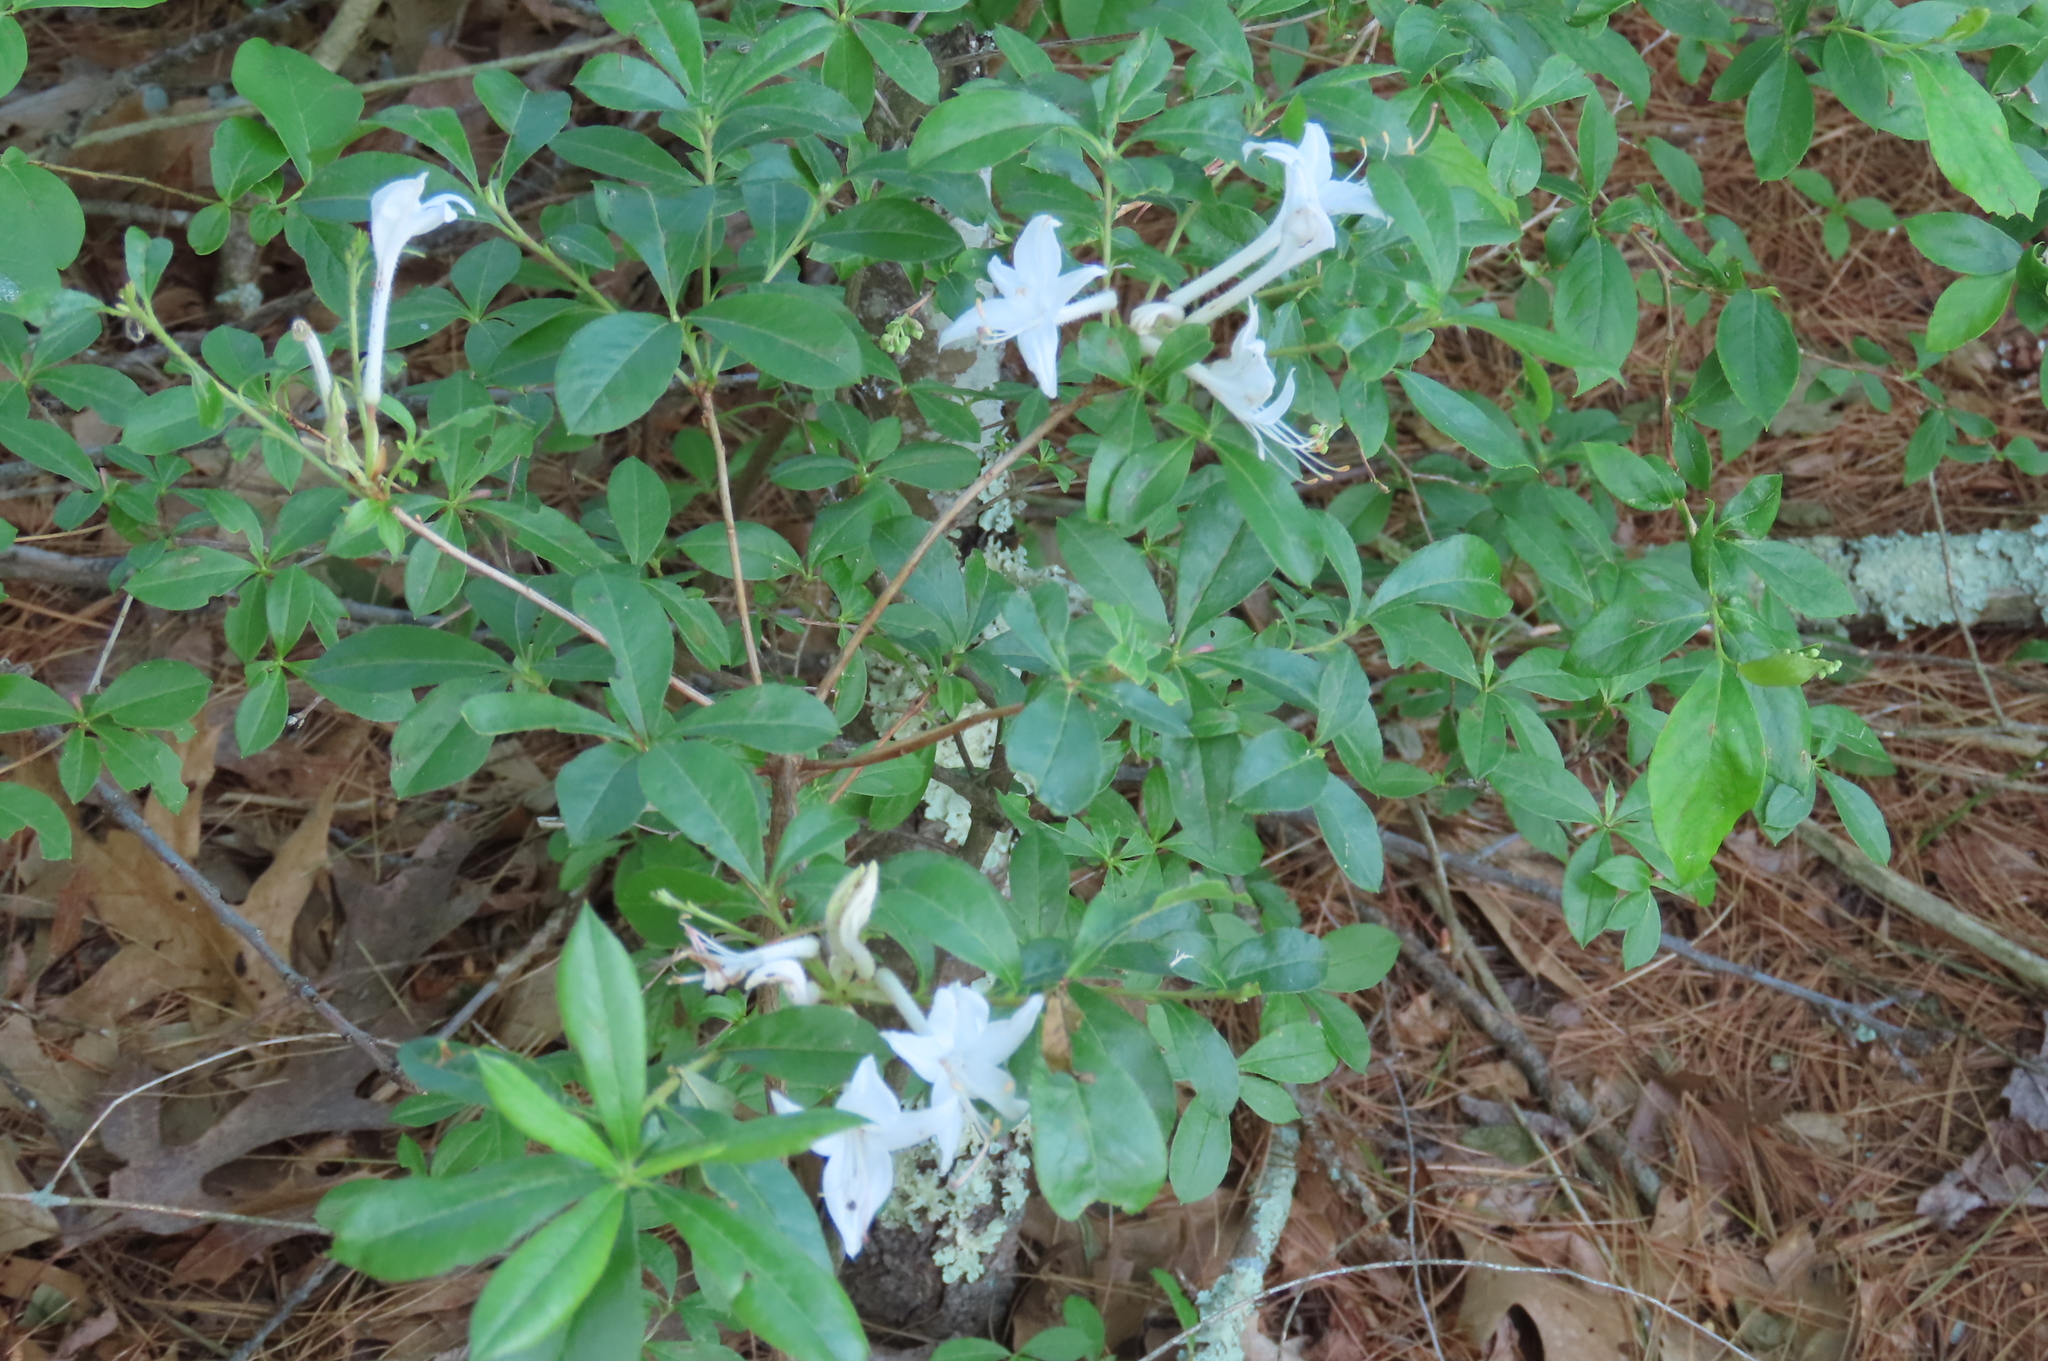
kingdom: Plantae
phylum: Tracheophyta
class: Magnoliopsida
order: Ericales
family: Ericaceae
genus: Rhododendron
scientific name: Rhododendron viscosum
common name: Clammy azalea
